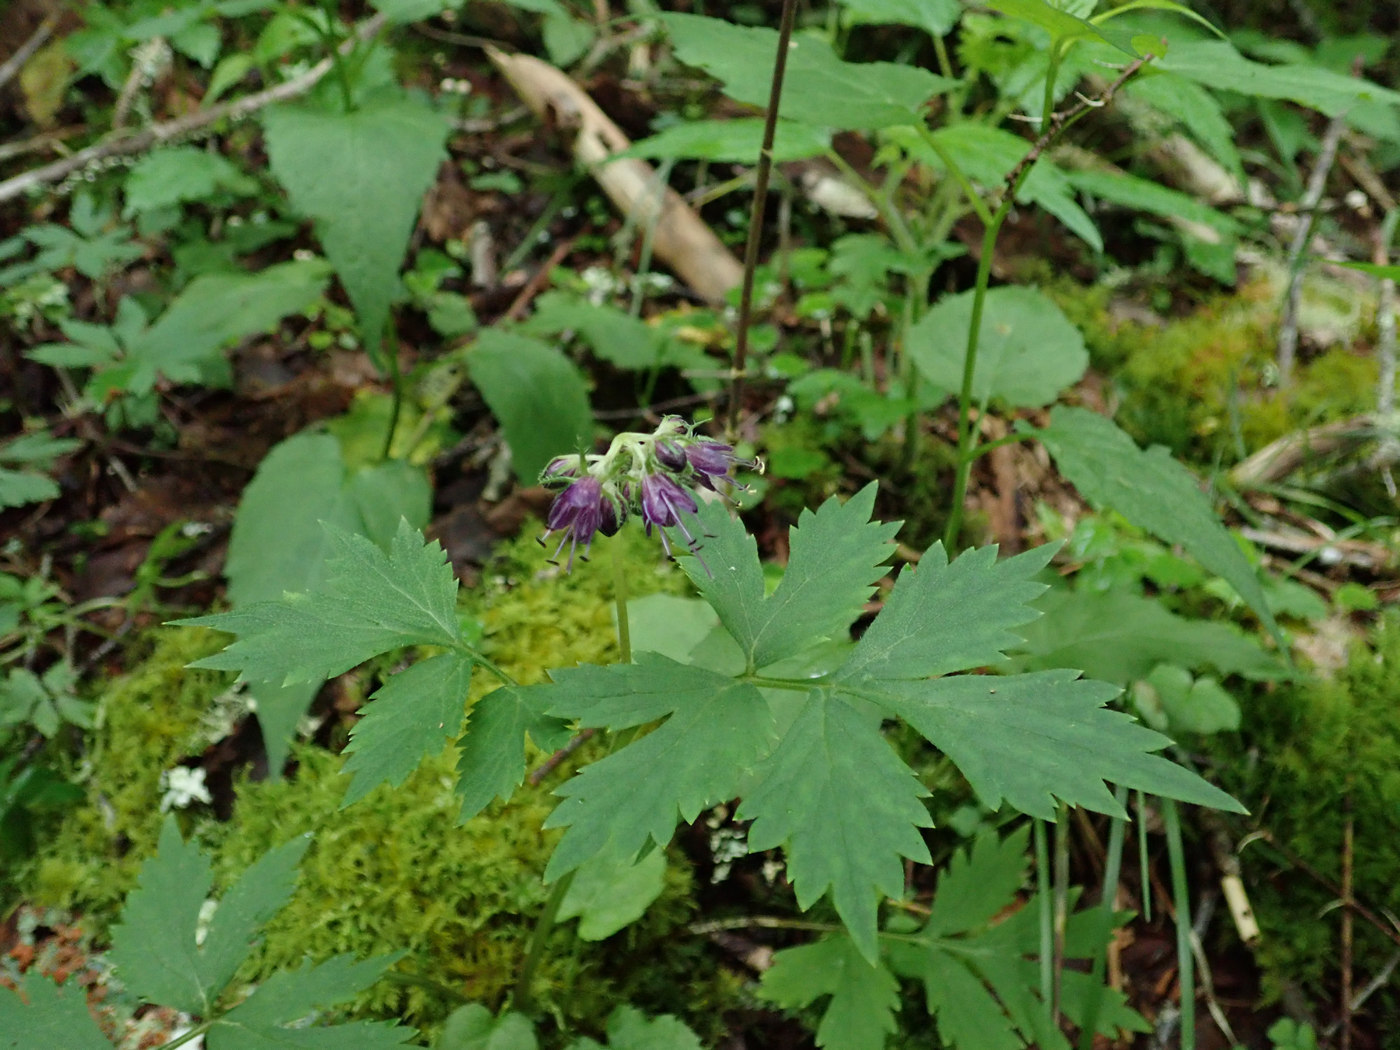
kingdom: Plantae
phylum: Tracheophyta
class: Magnoliopsida
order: Boraginales
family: Hydrophyllaceae
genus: Hydrophyllum
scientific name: Hydrophyllum virginianum
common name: Virginia waterleaf
